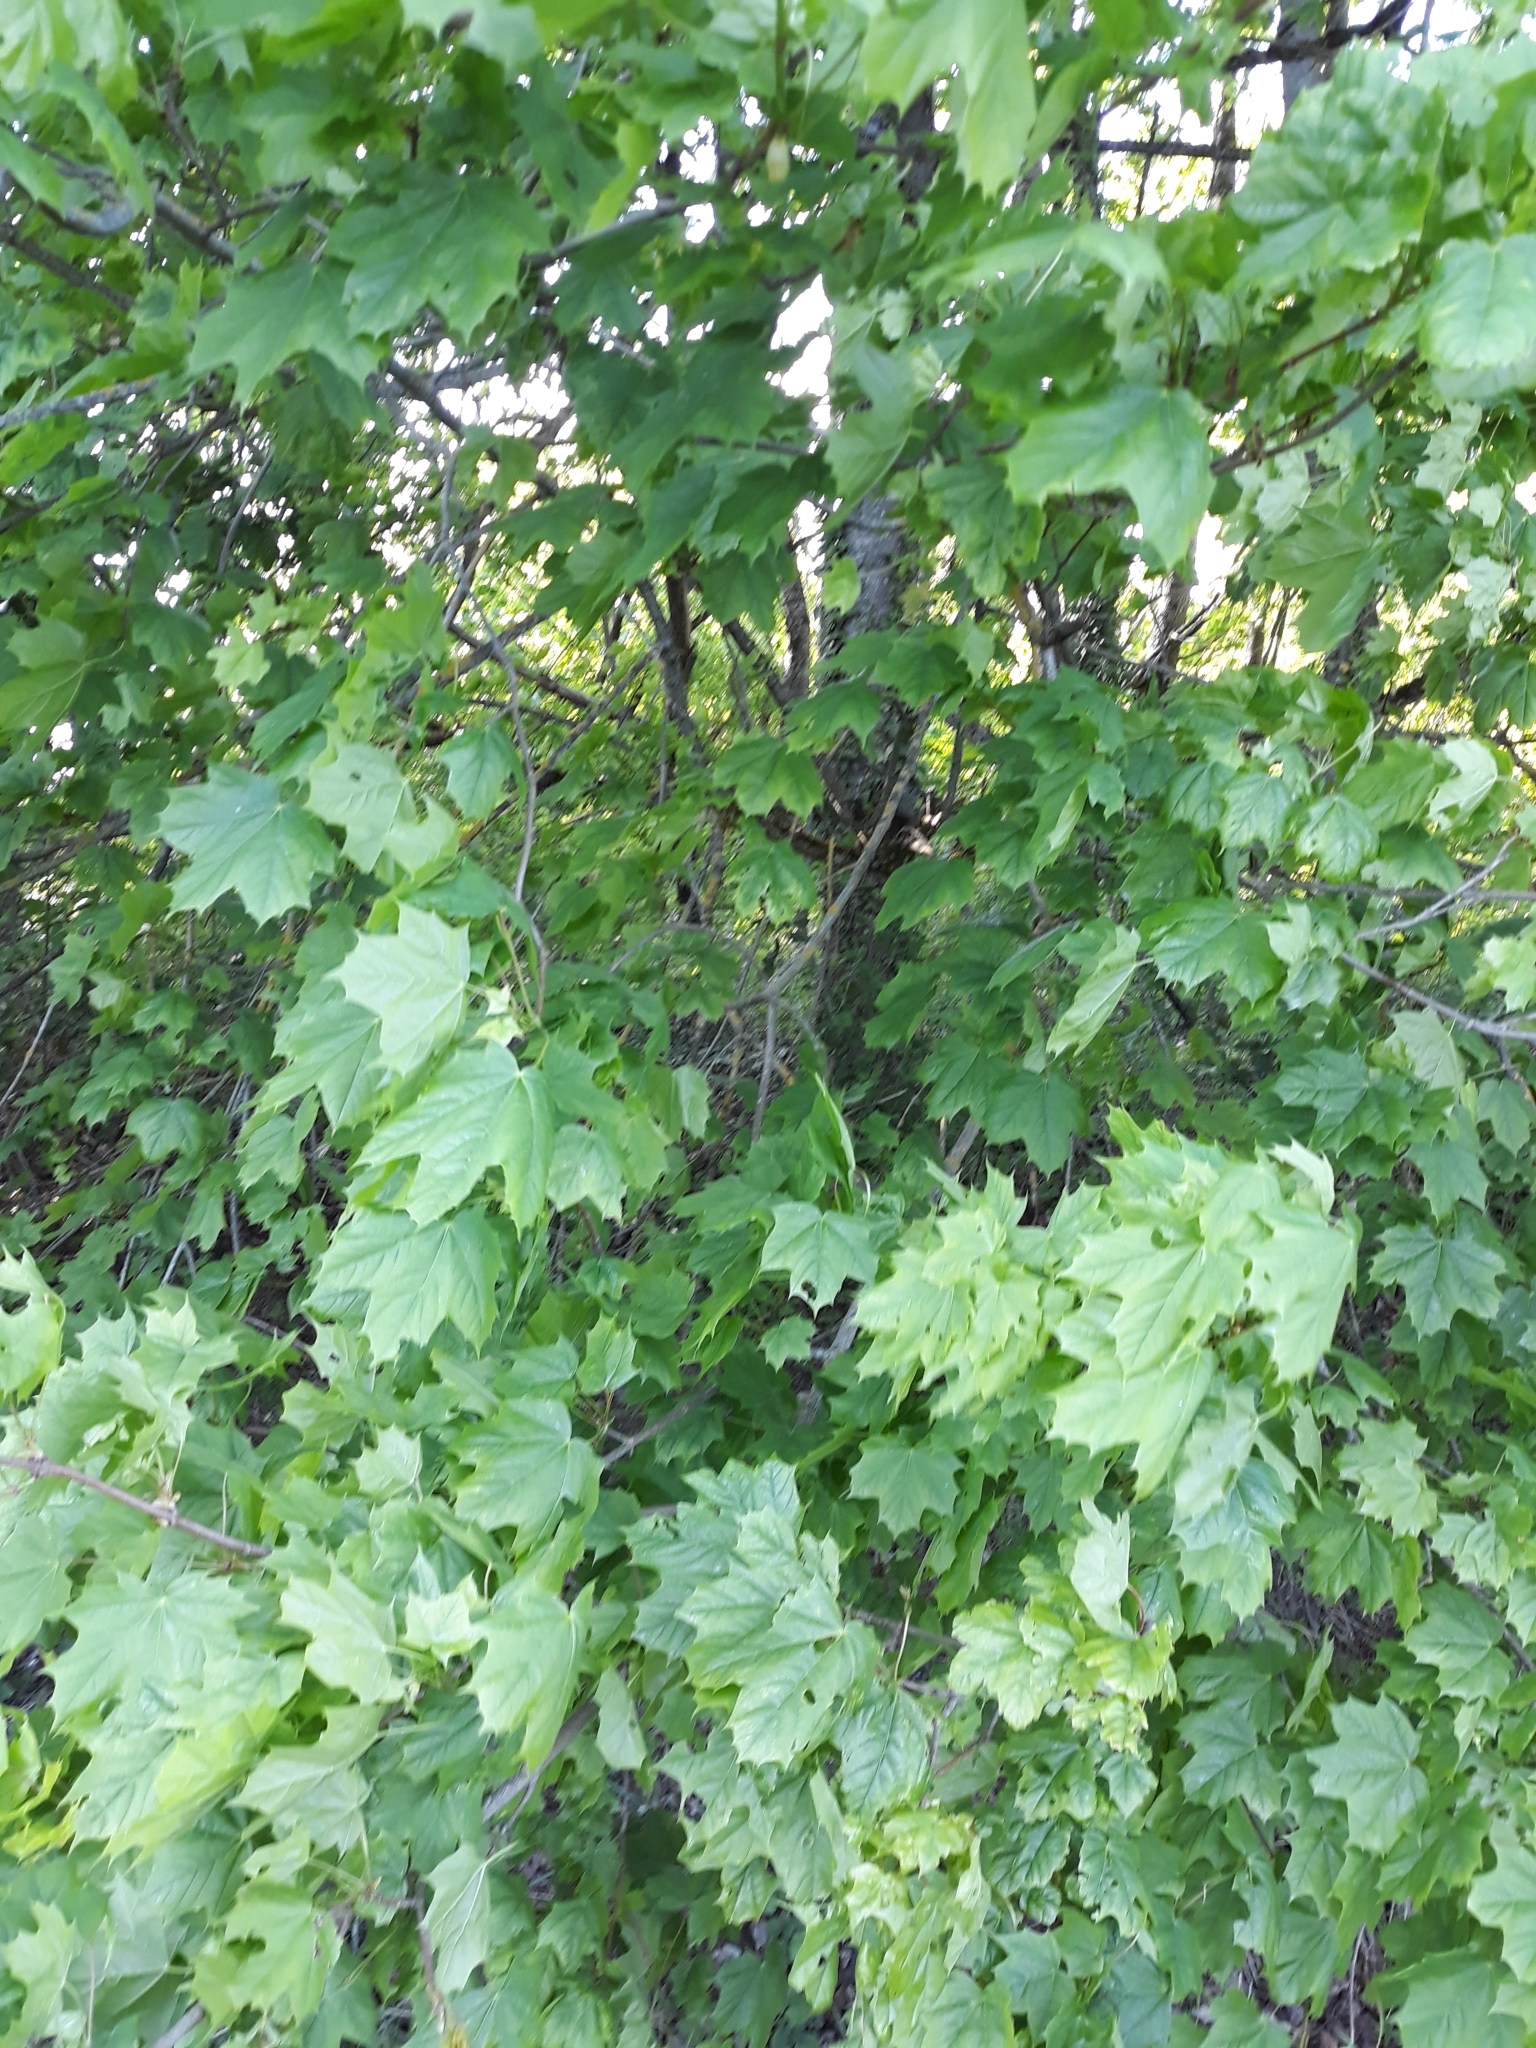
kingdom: Plantae
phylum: Tracheophyta
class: Magnoliopsida
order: Sapindales
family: Sapindaceae
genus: Acer
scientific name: Acer platanoides
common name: Norway maple
